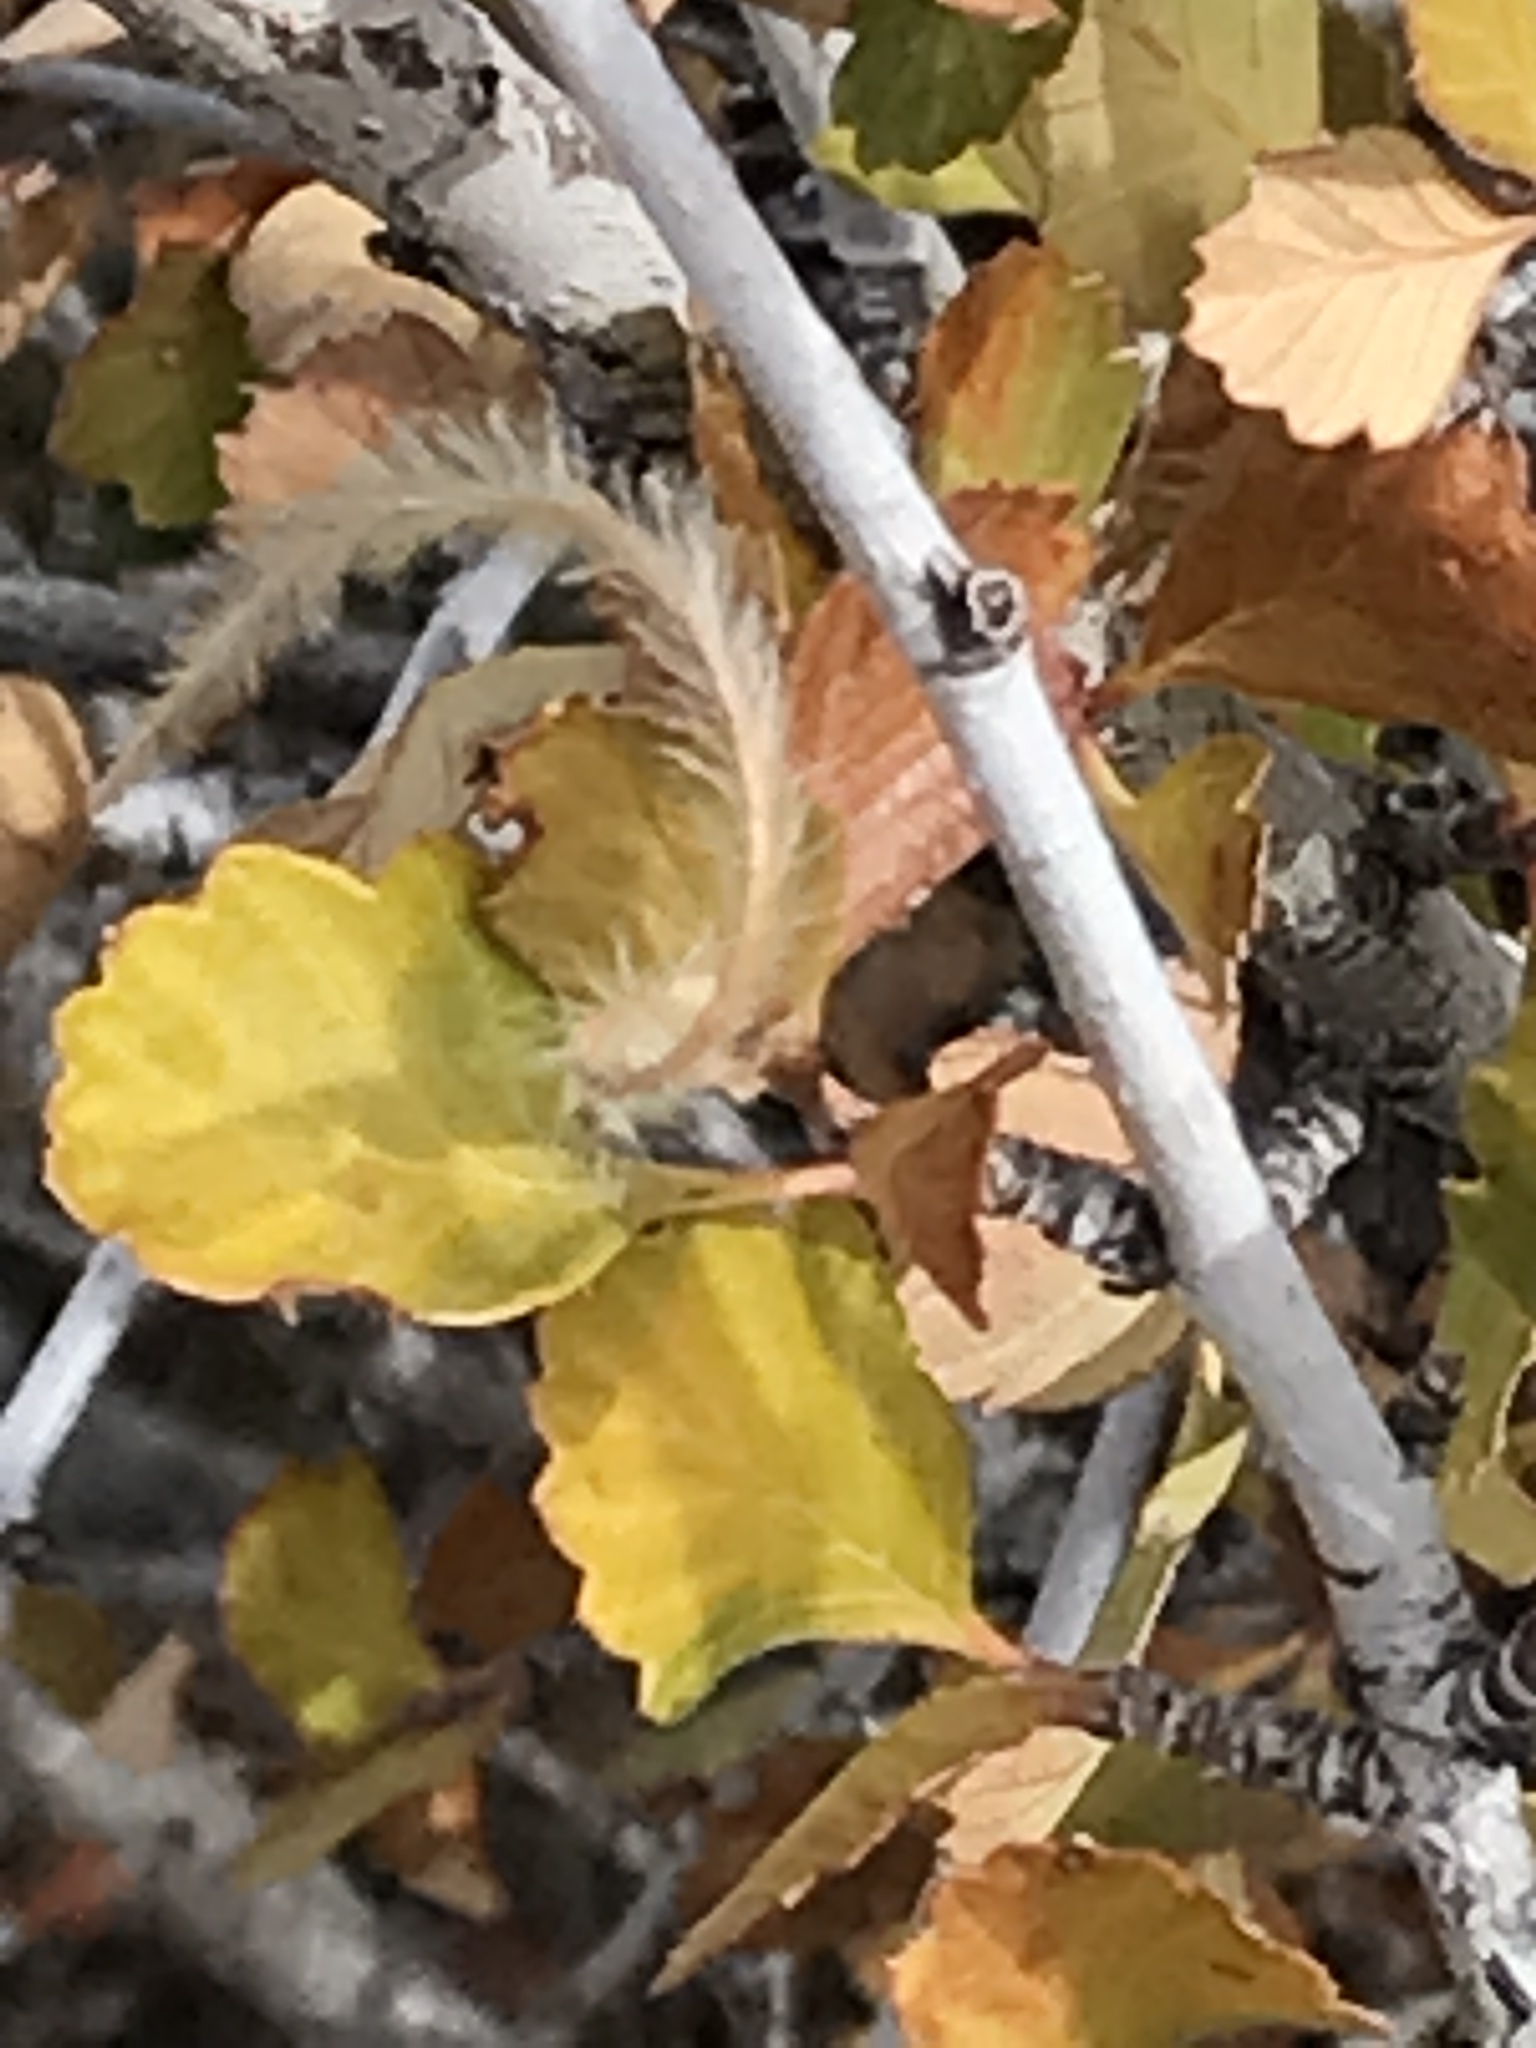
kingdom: Plantae
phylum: Tracheophyta
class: Magnoliopsida
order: Rosales
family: Rosaceae
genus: Cercocarpus
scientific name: Cercocarpus montanus
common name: Alder-leaf cercocarpus
